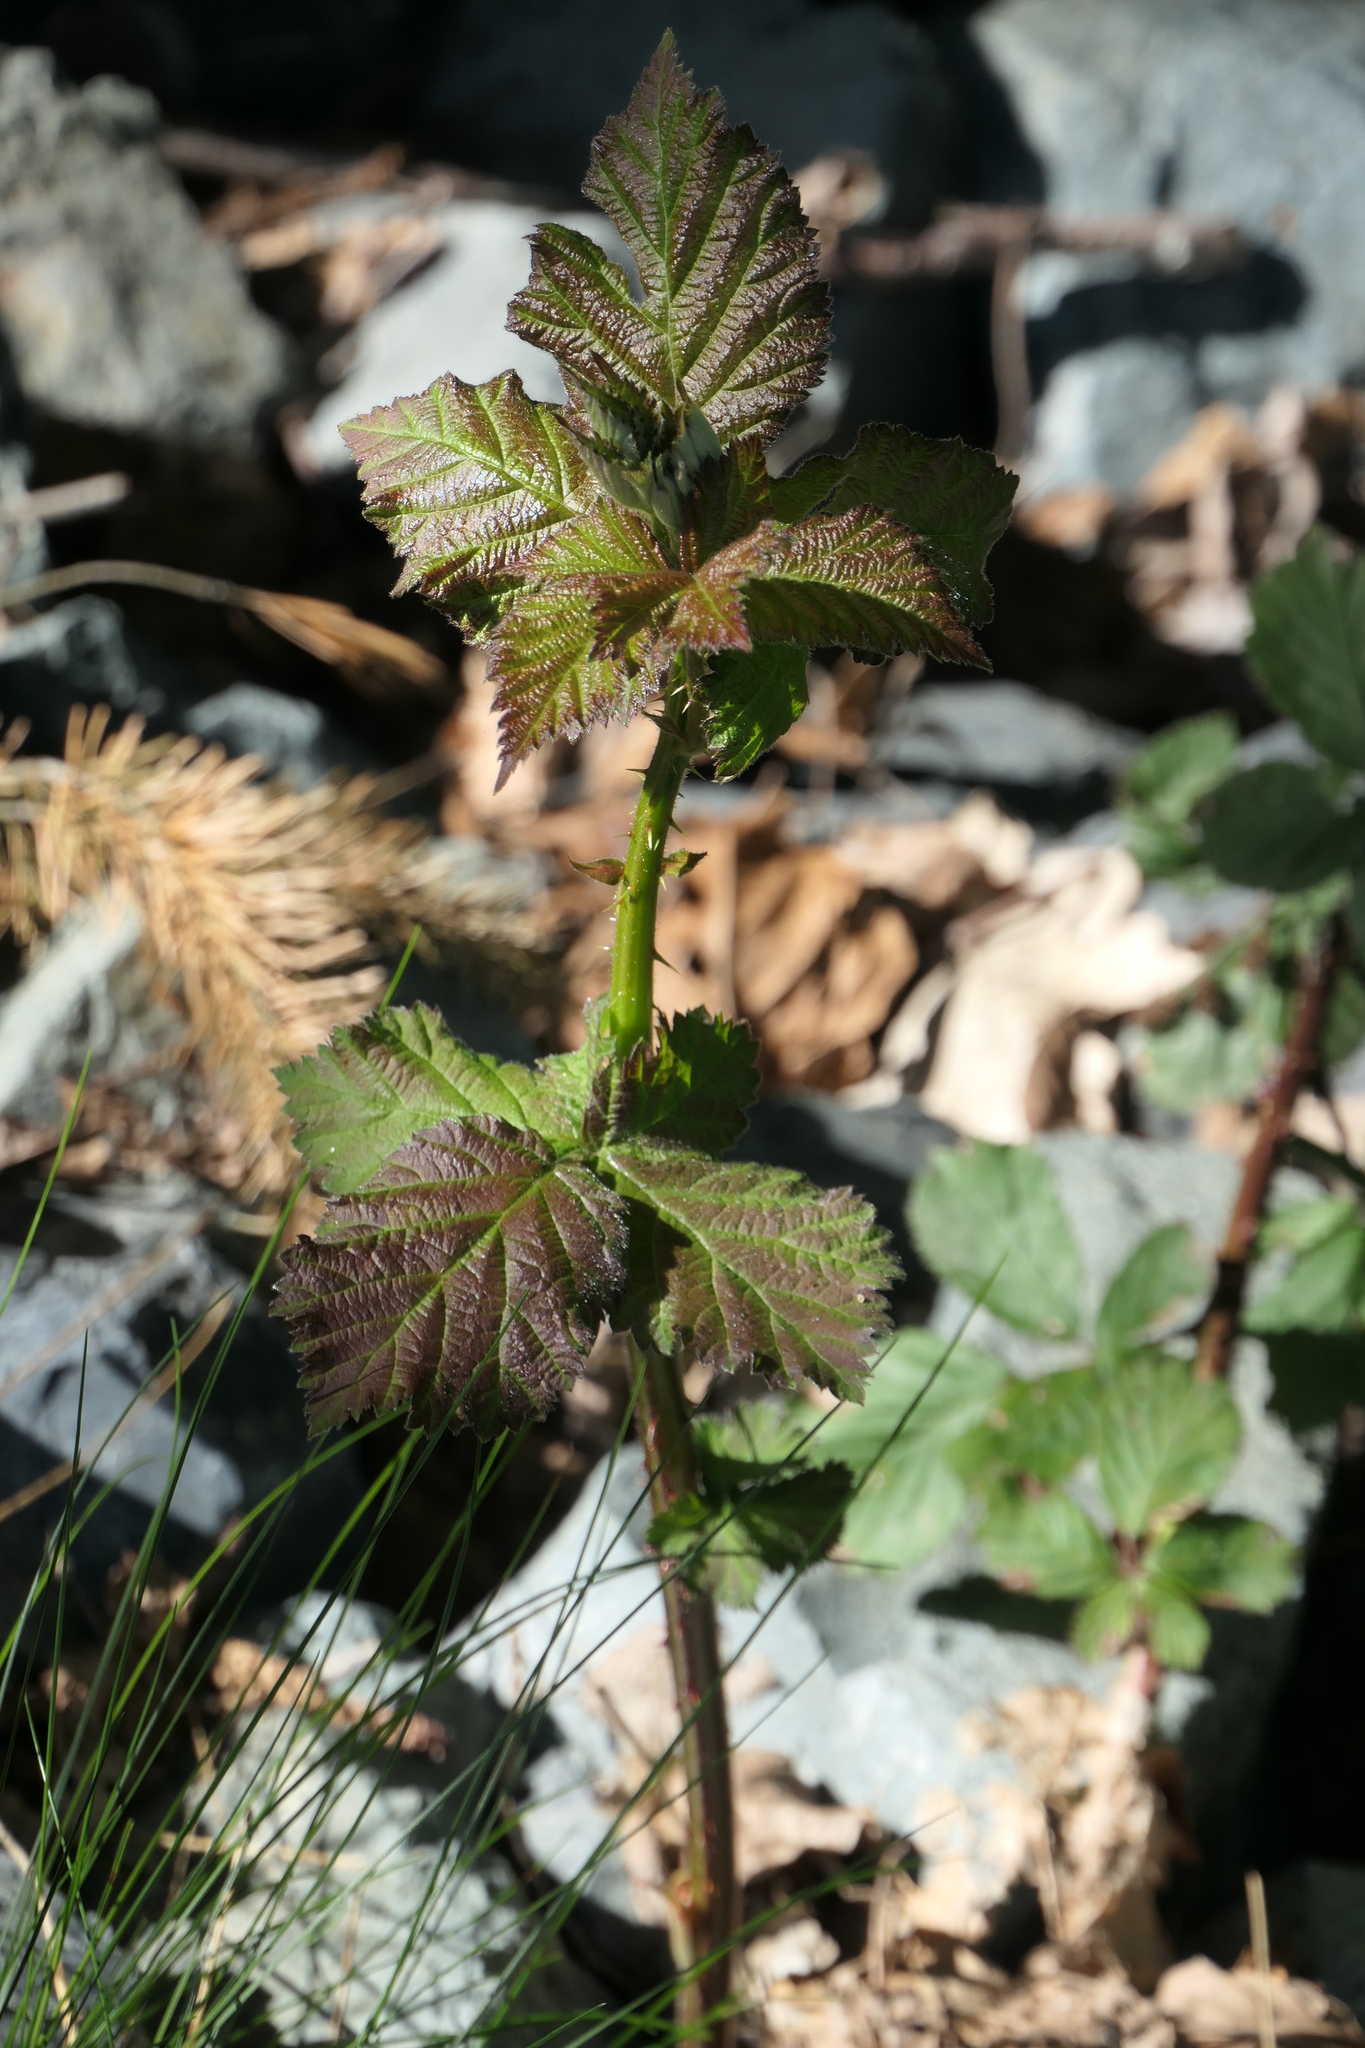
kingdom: Plantae
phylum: Tracheophyta
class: Magnoliopsida
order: Rosales
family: Rosaceae
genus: Rubus
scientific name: Rubus bifrons
